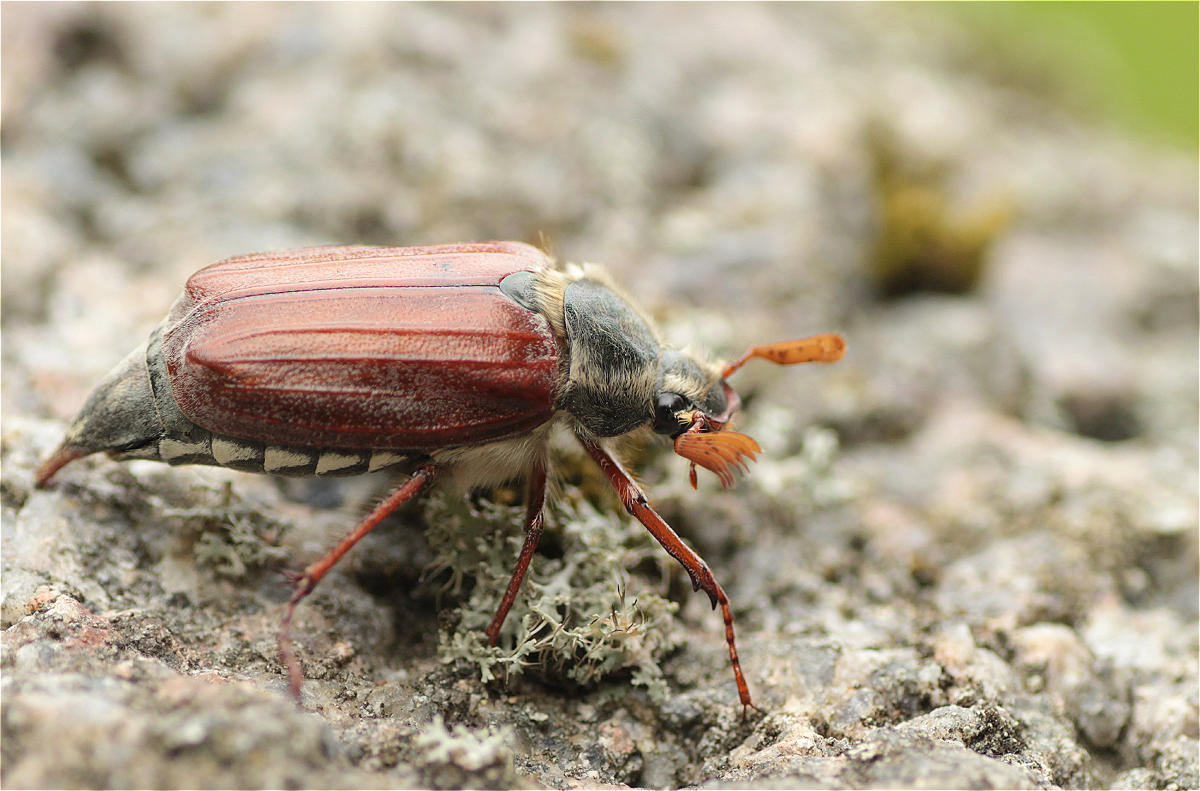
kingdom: Animalia
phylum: Arthropoda
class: Insecta
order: Coleoptera
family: Scarabaeidae
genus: Melolontha
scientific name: Melolontha melolontha
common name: Cockchafer maybeetle
